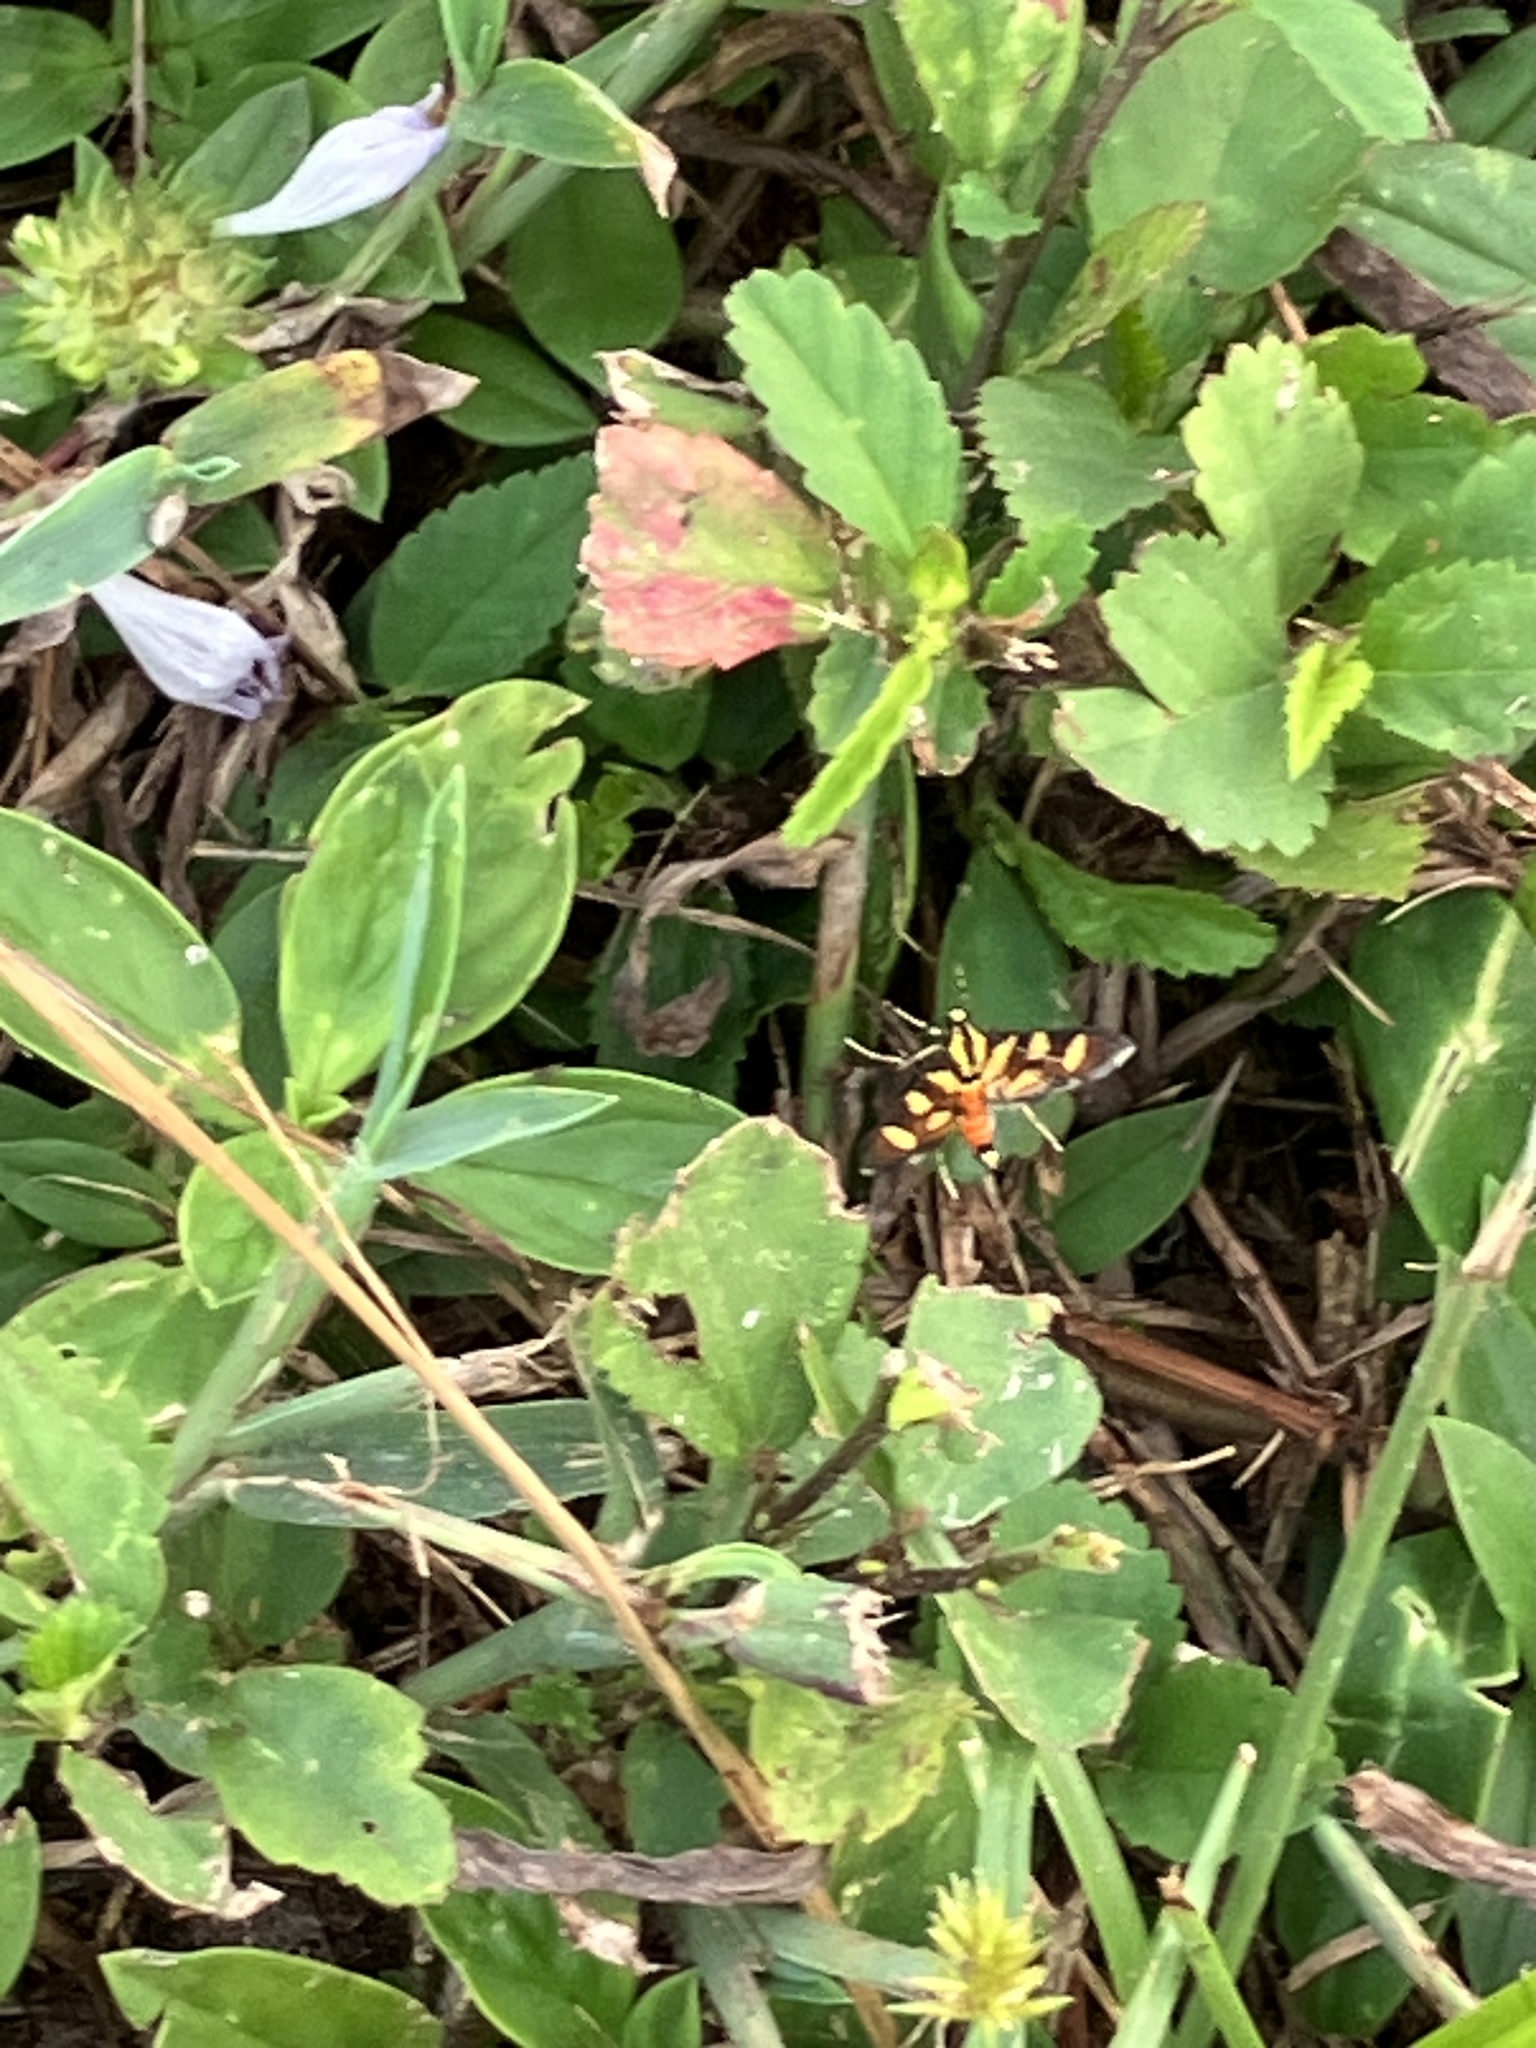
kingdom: Animalia
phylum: Arthropoda
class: Insecta
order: Lepidoptera
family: Crambidae
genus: Syngamia
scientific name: Syngamia florella
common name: Orange-spotted flower moth
